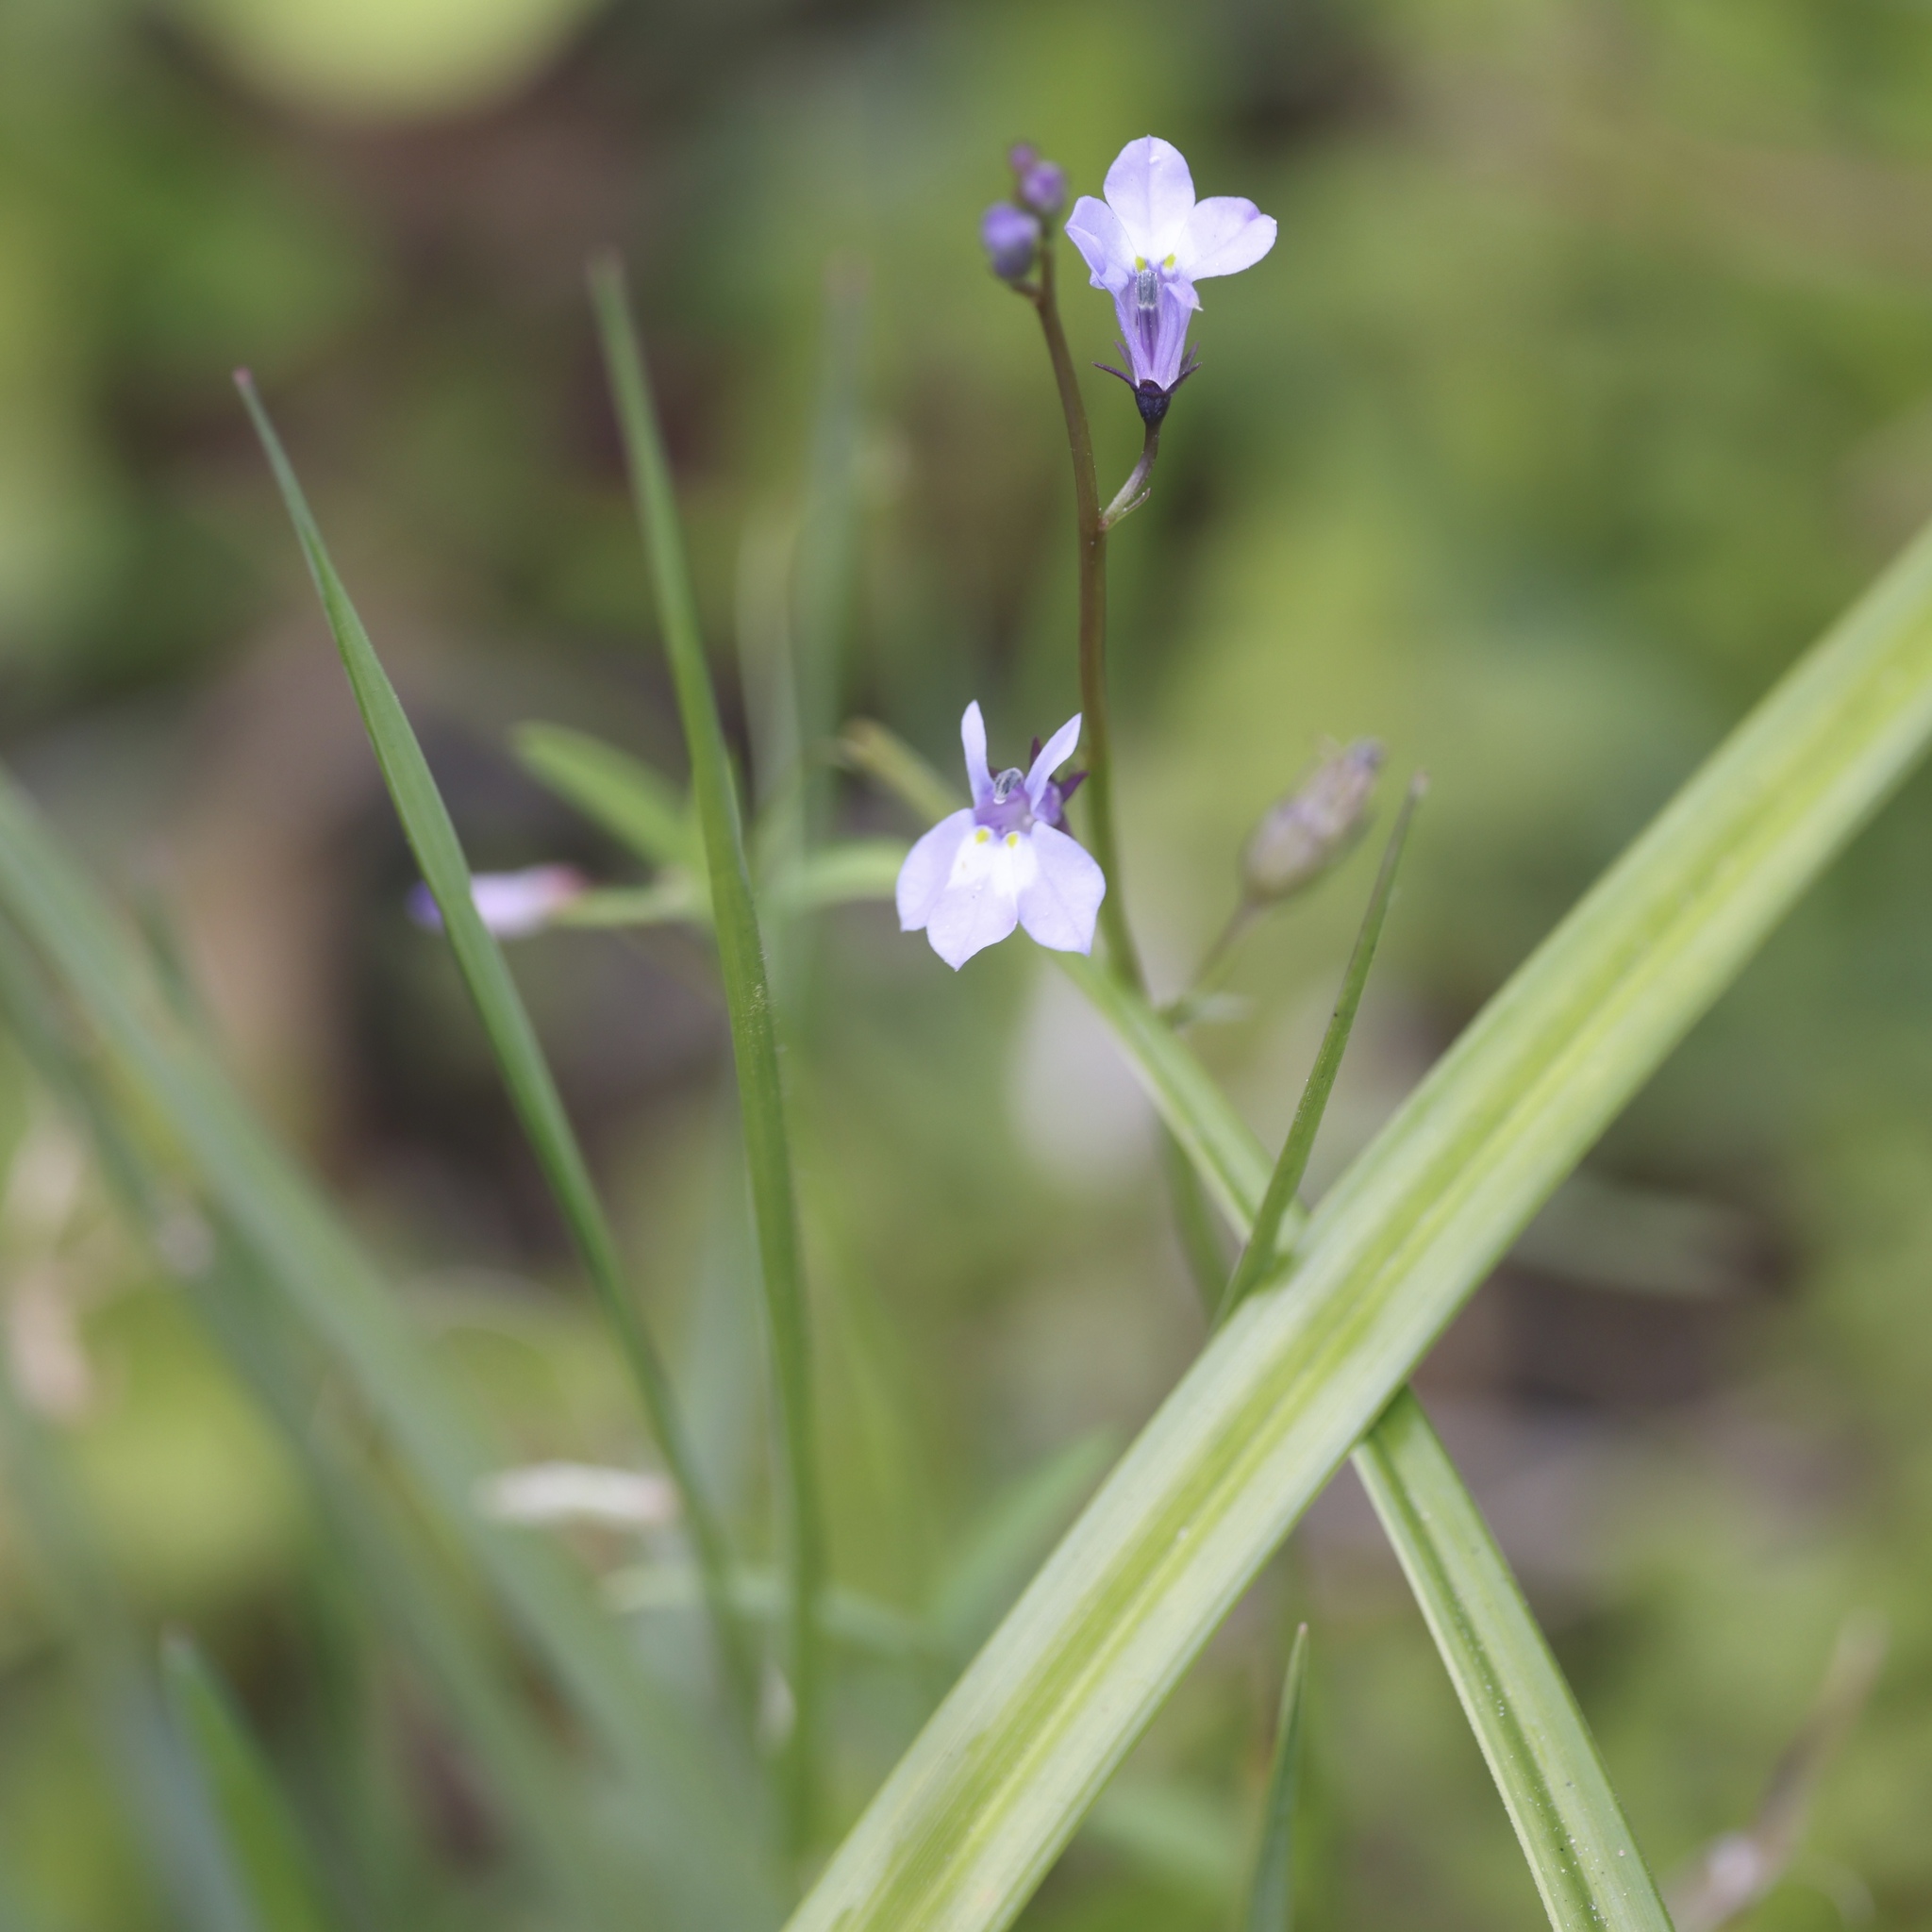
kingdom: Plantae
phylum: Tracheophyta
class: Magnoliopsida
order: Asterales
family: Campanulaceae
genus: Lobelia
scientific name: Lobelia feayana
